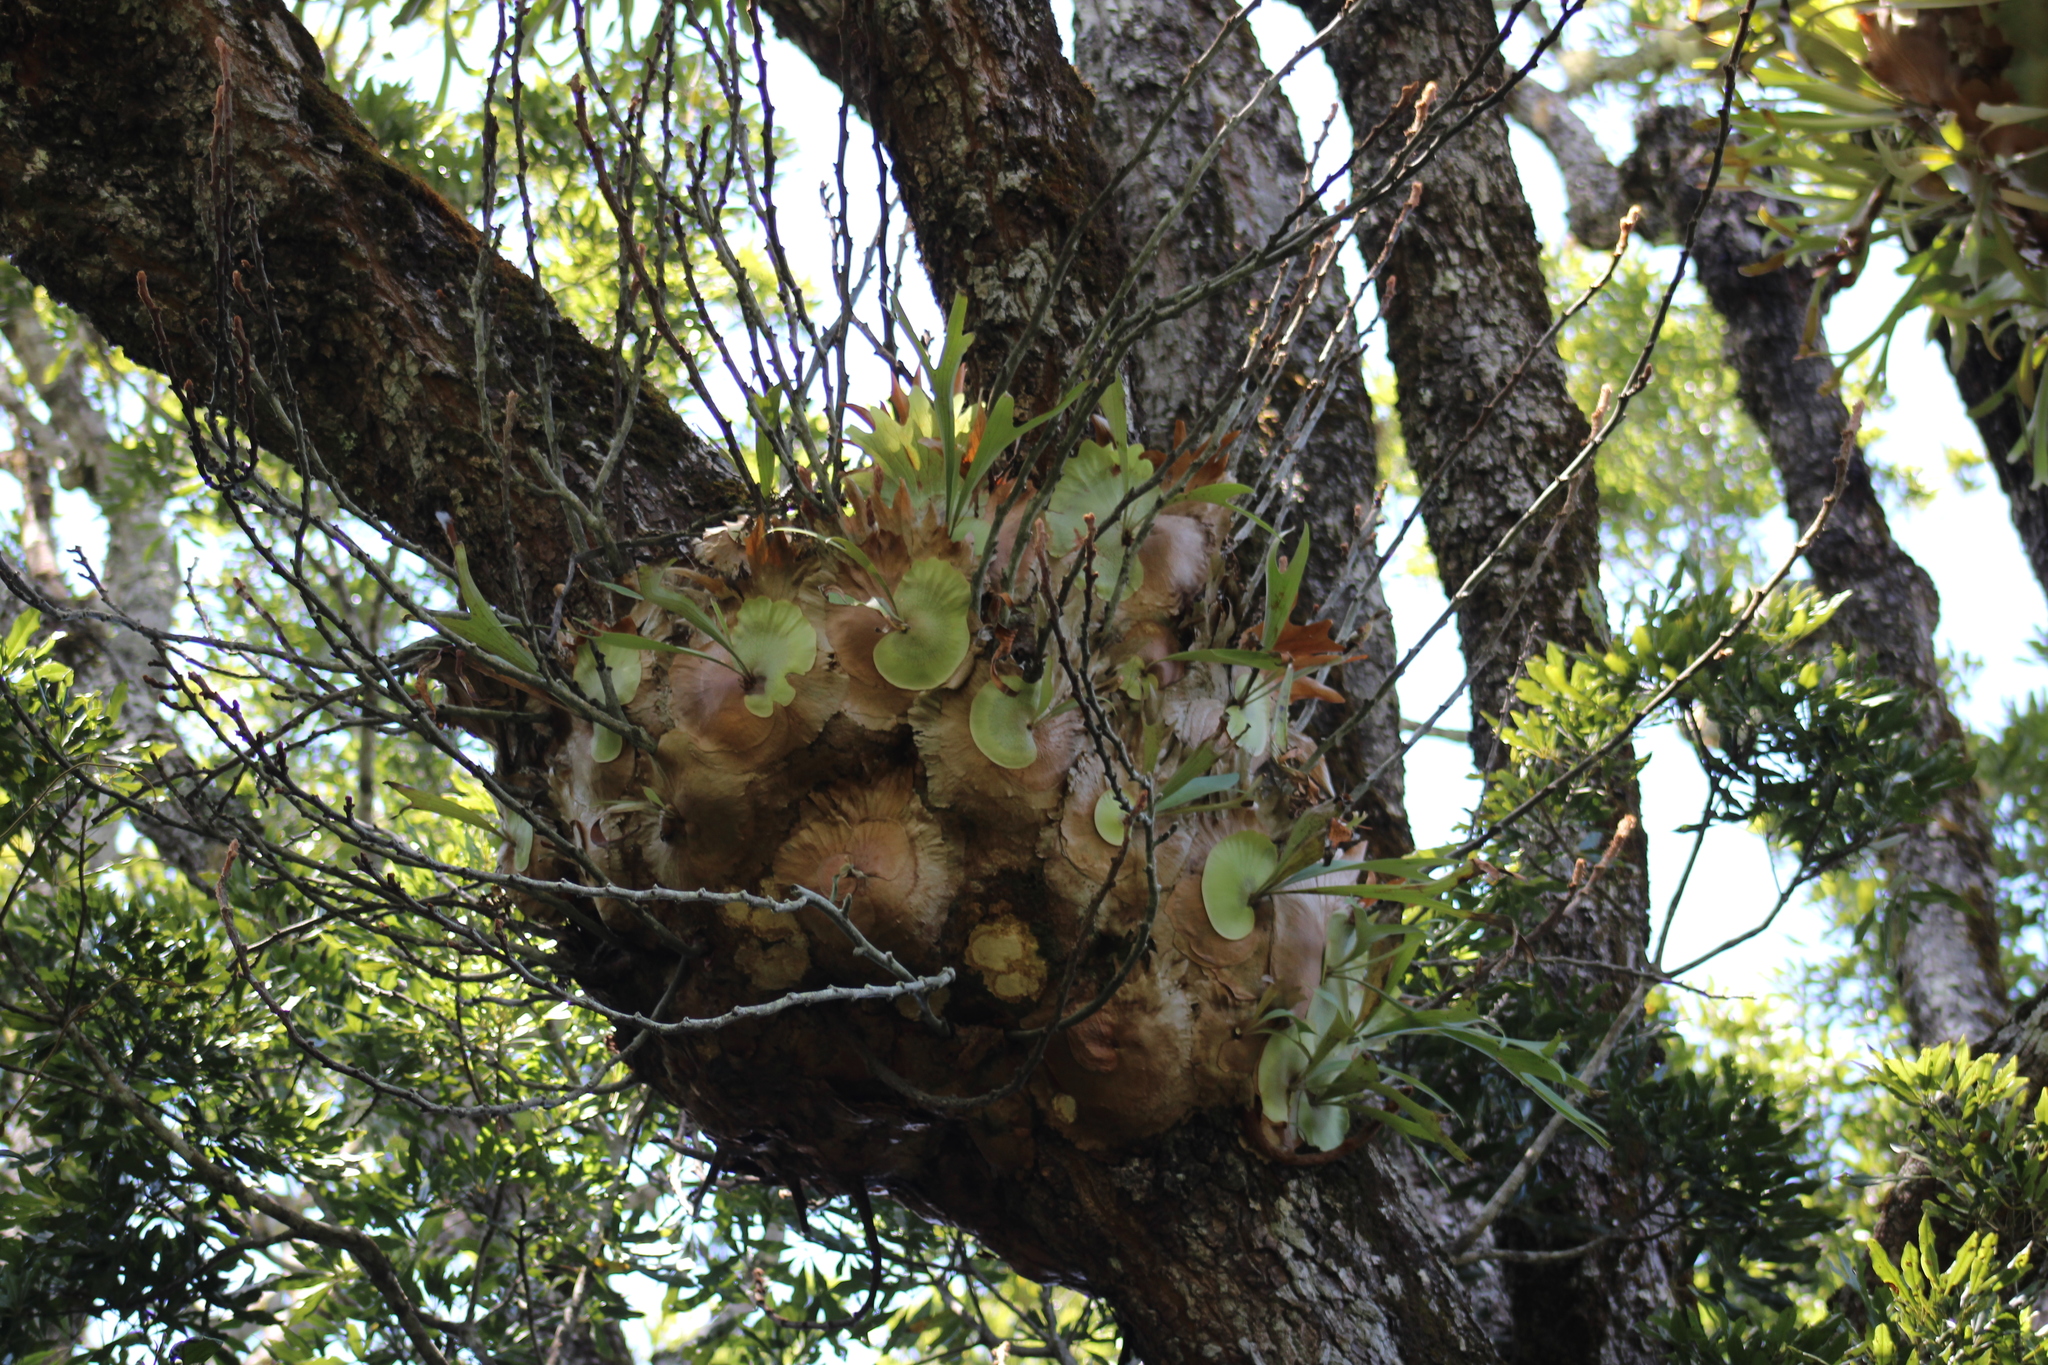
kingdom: Plantae
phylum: Tracheophyta
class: Polypodiopsida
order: Polypodiales
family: Polypodiaceae
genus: Platycerium
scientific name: Platycerium bifurcatum
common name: Elkhorn fern
